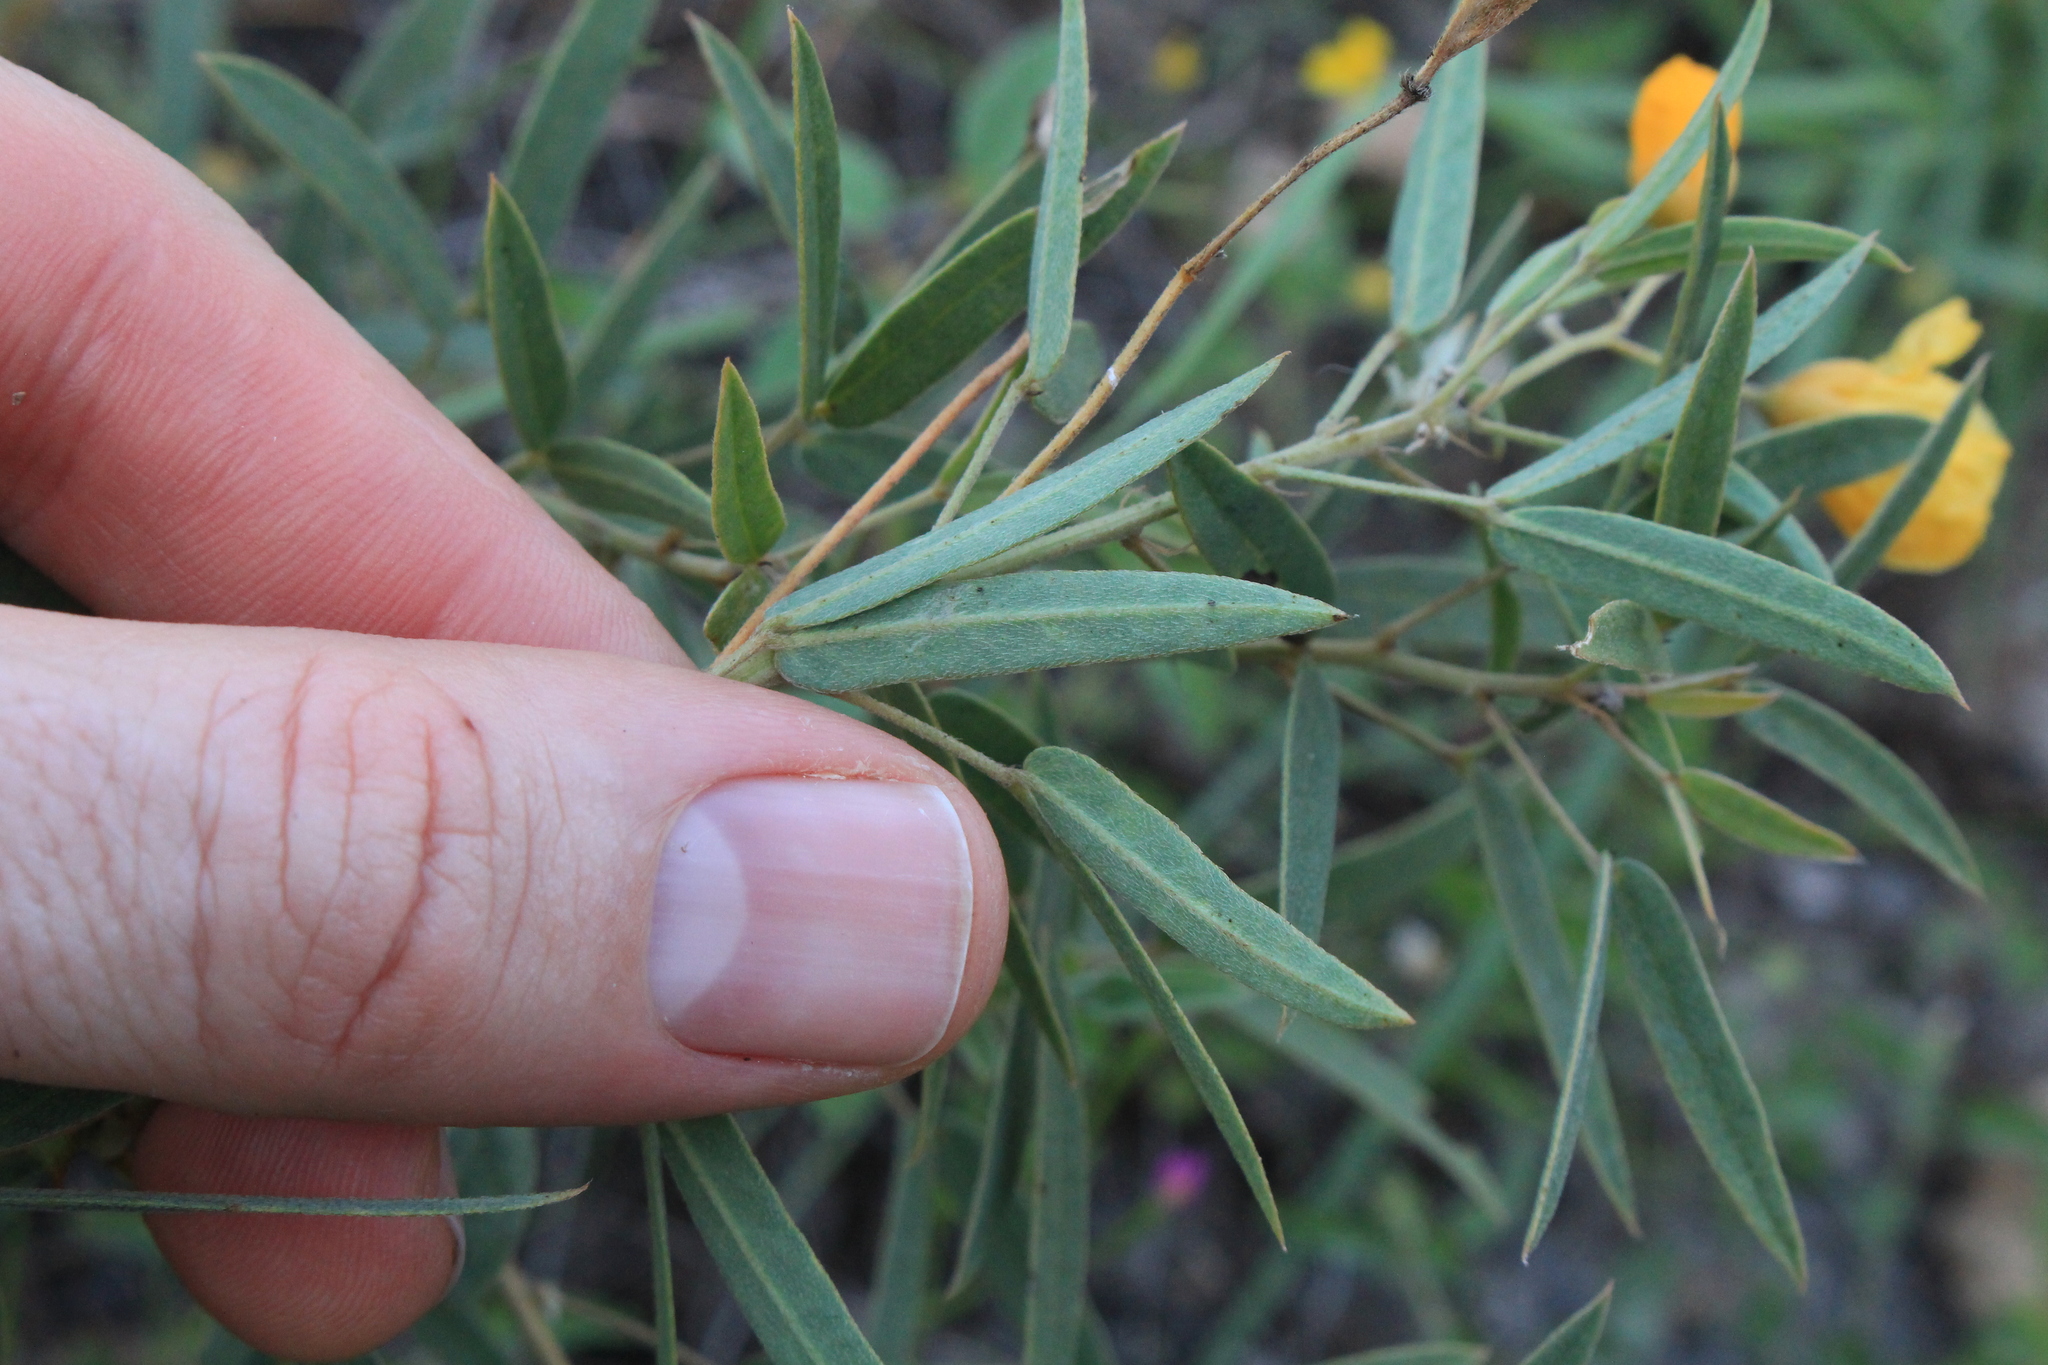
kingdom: Plantae
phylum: Tracheophyta
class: Magnoliopsida
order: Fabales
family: Fabaceae
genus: Senna
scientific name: Senna roemeriana
